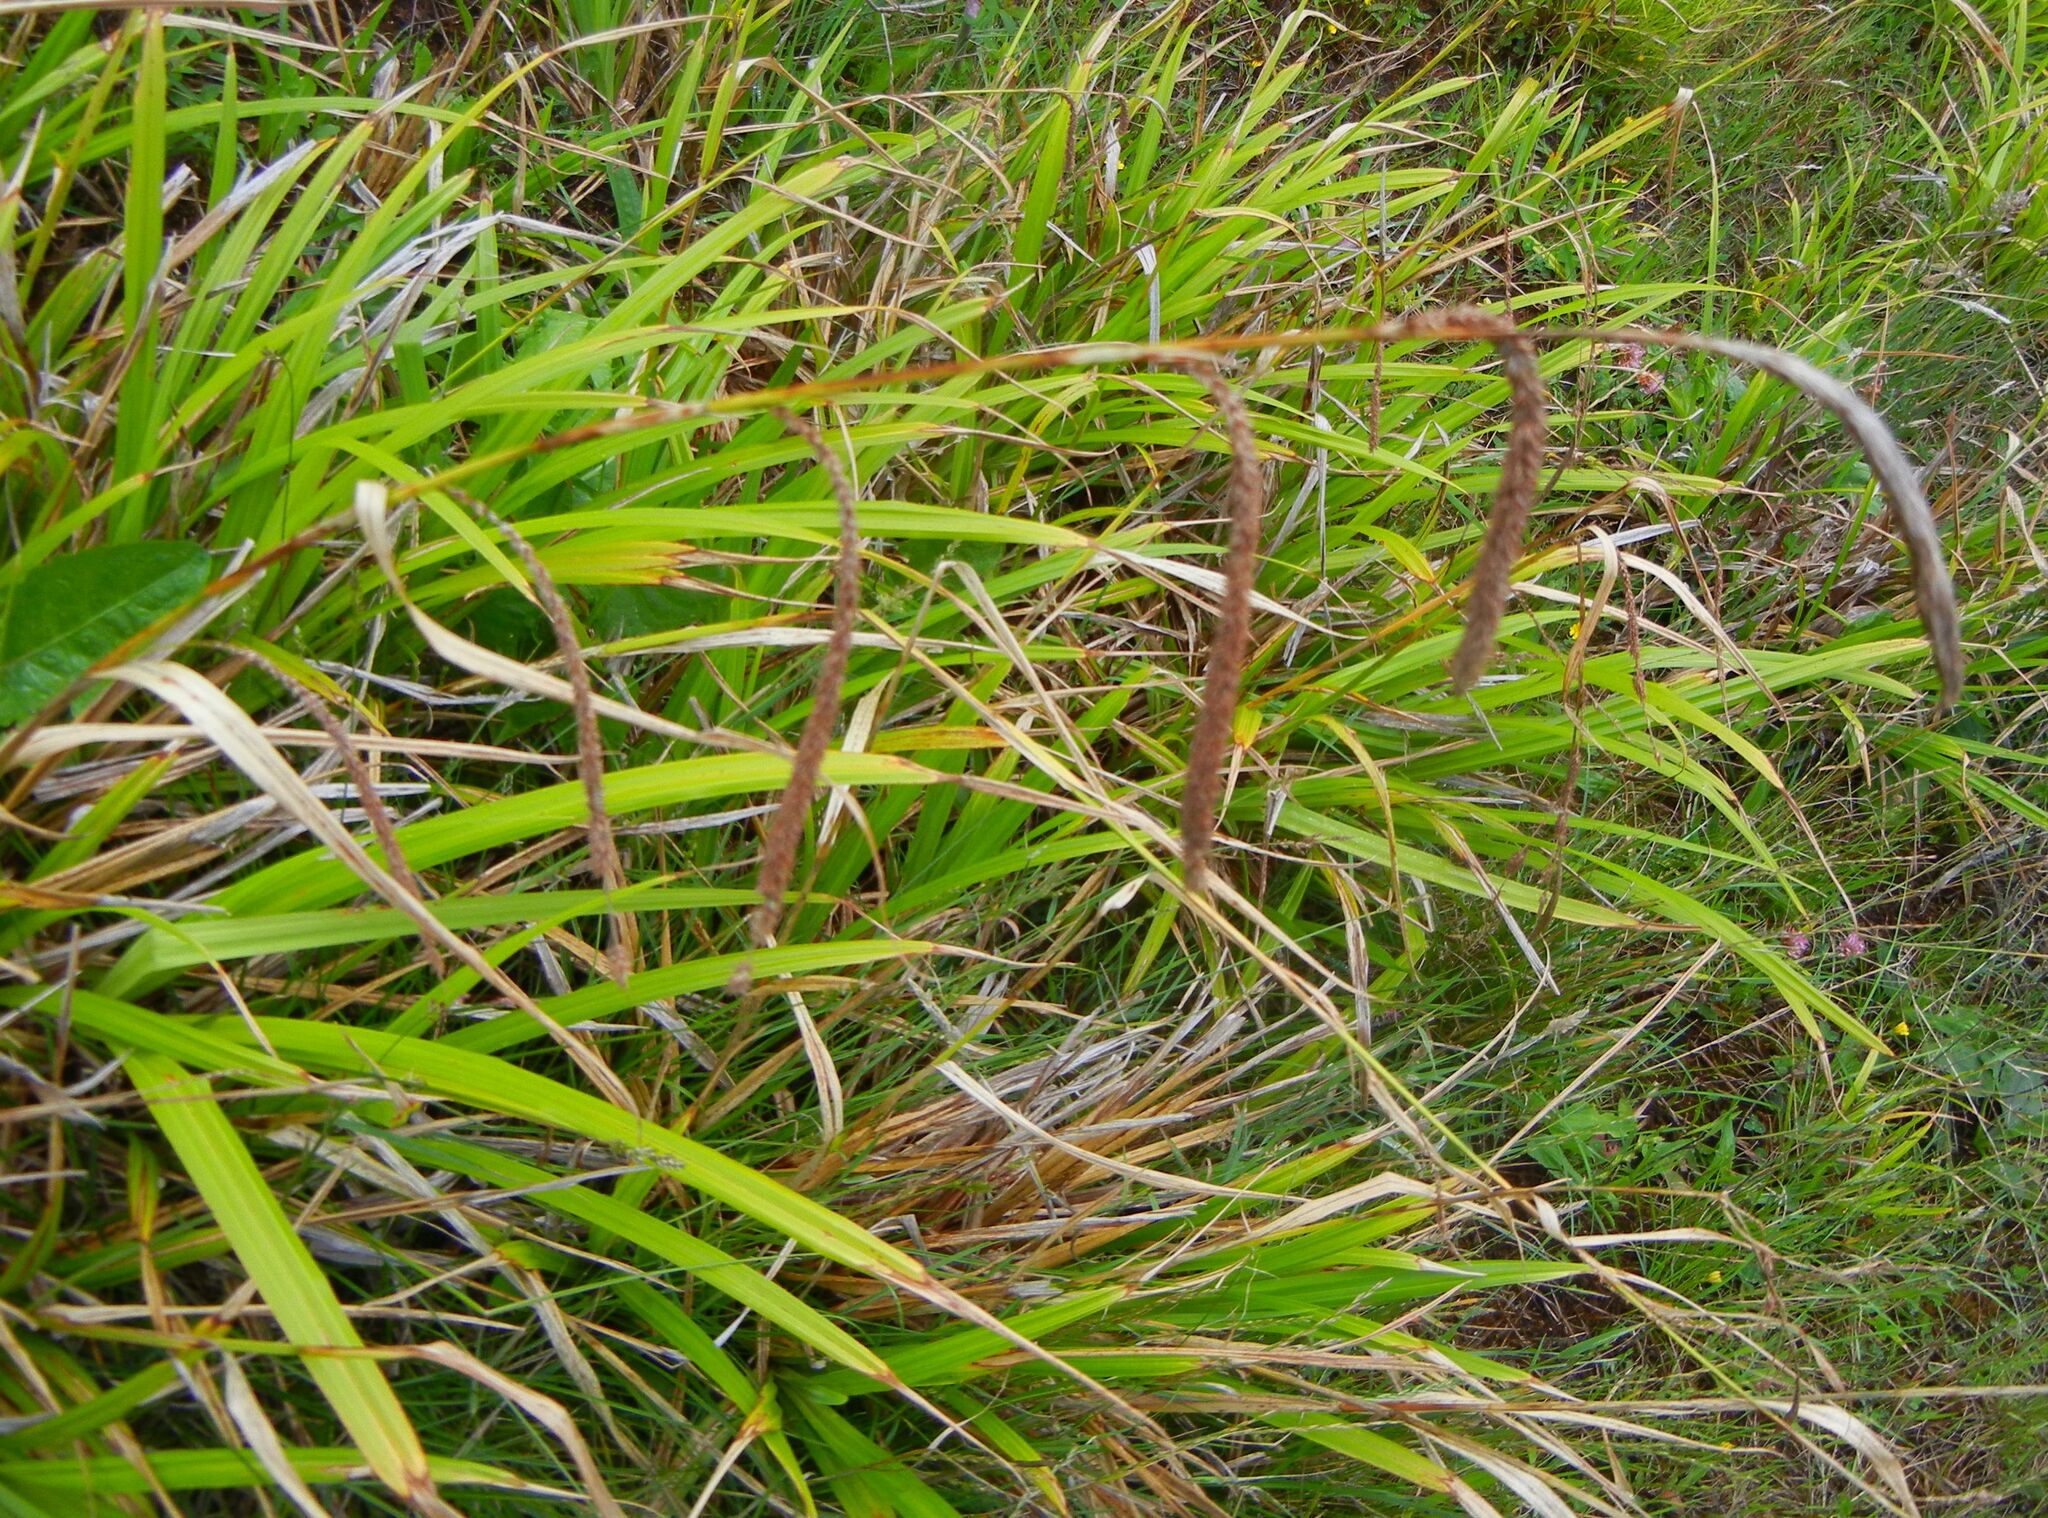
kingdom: Plantae
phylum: Tracheophyta
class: Liliopsida
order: Poales
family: Cyperaceae
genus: Carex
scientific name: Carex pendula
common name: Pendulous sedge
